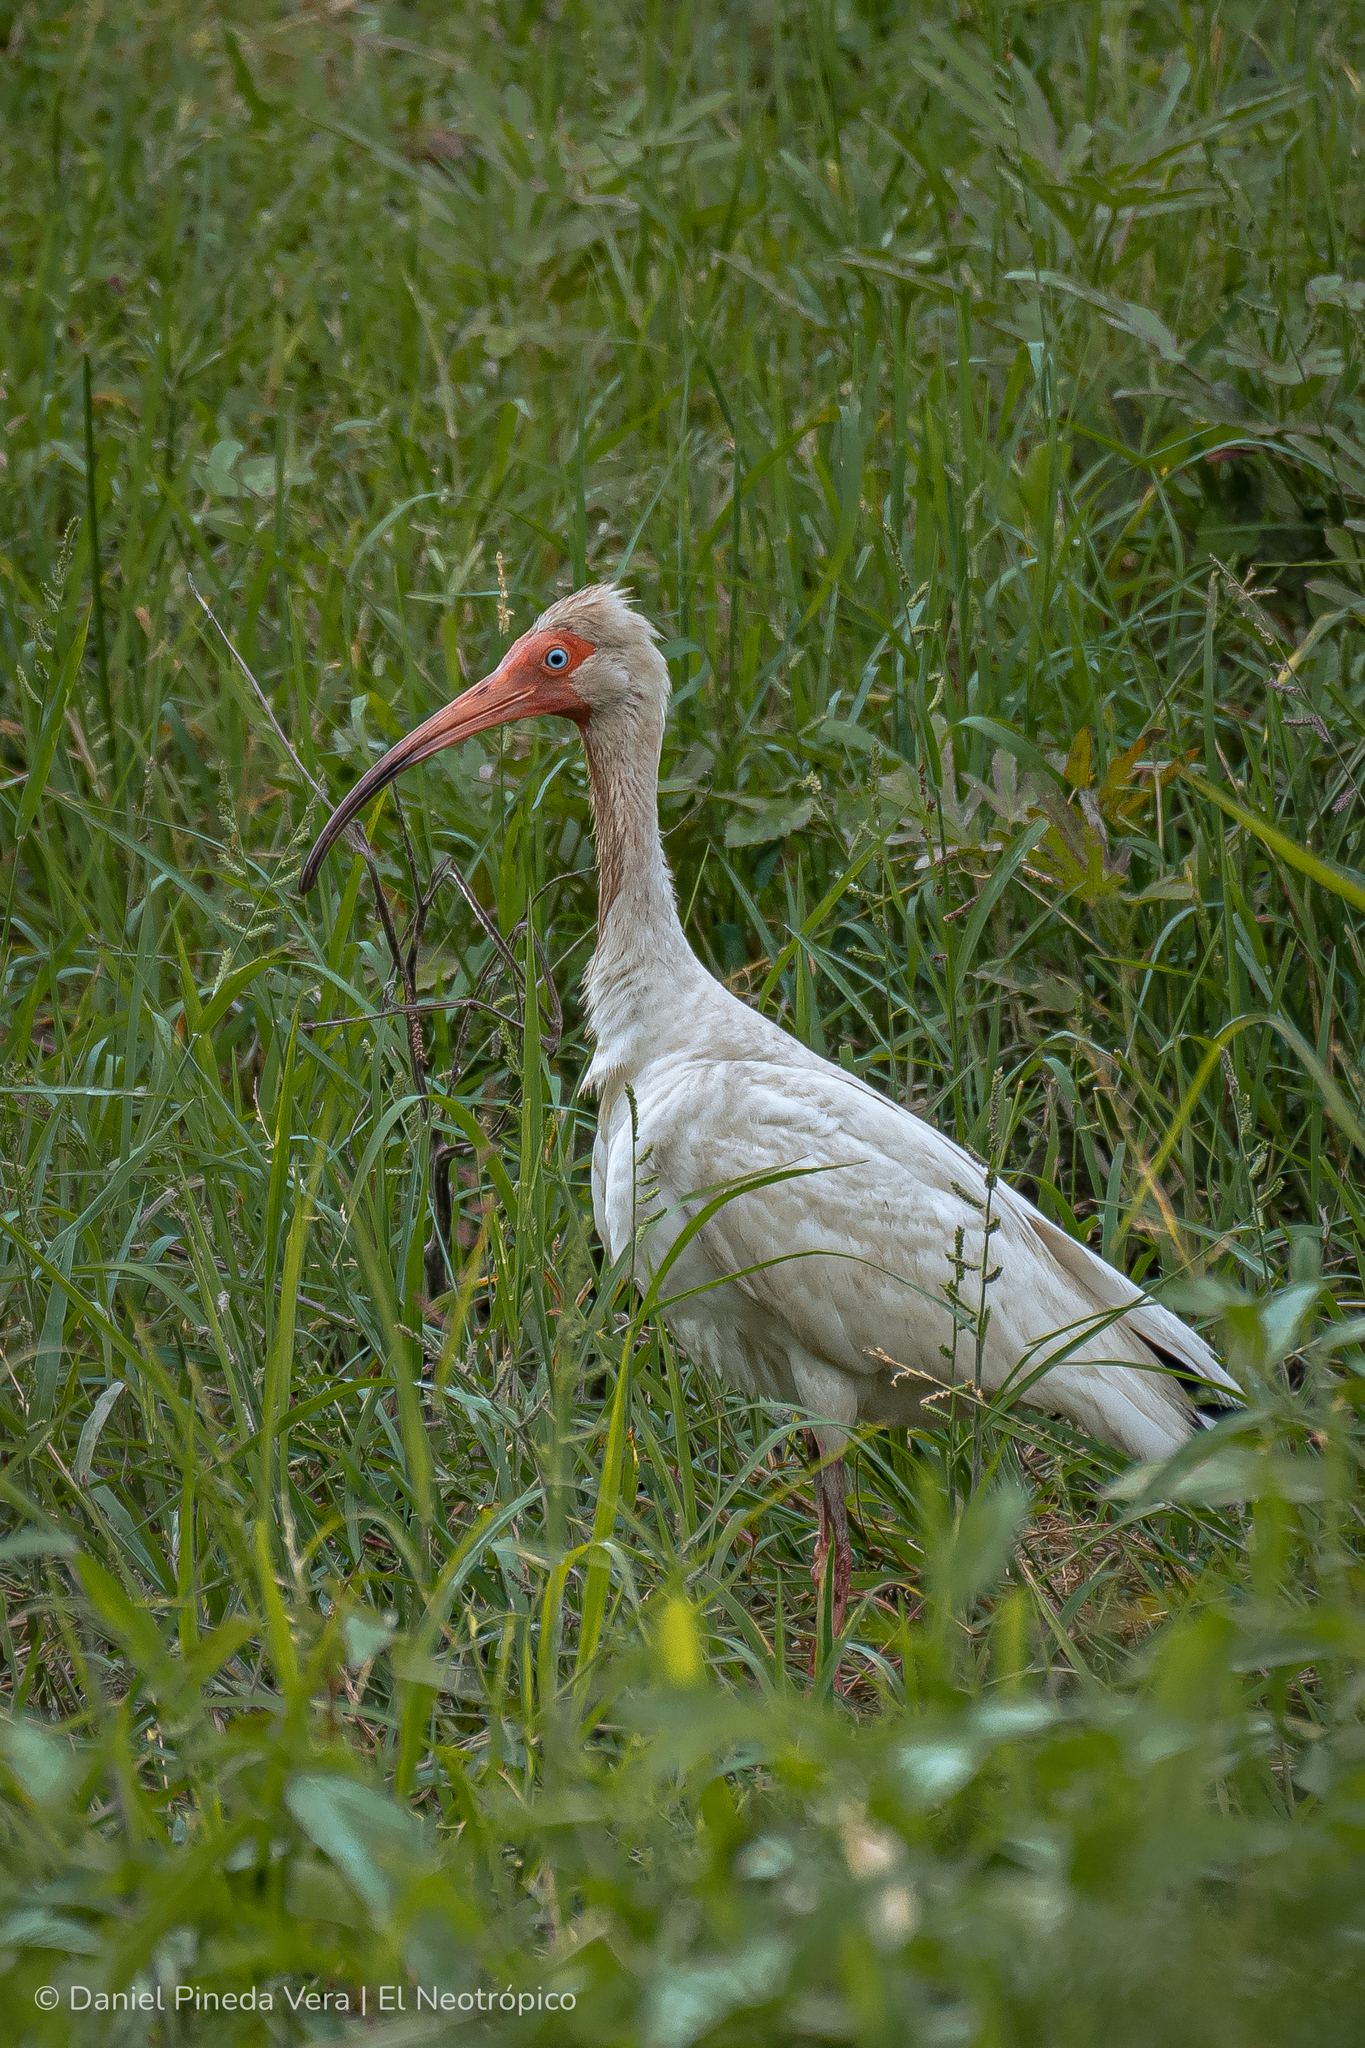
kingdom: Animalia
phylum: Chordata
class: Aves
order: Pelecaniformes
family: Threskiornithidae
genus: Eudocimus
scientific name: Eudocimus albus
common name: White ibis
